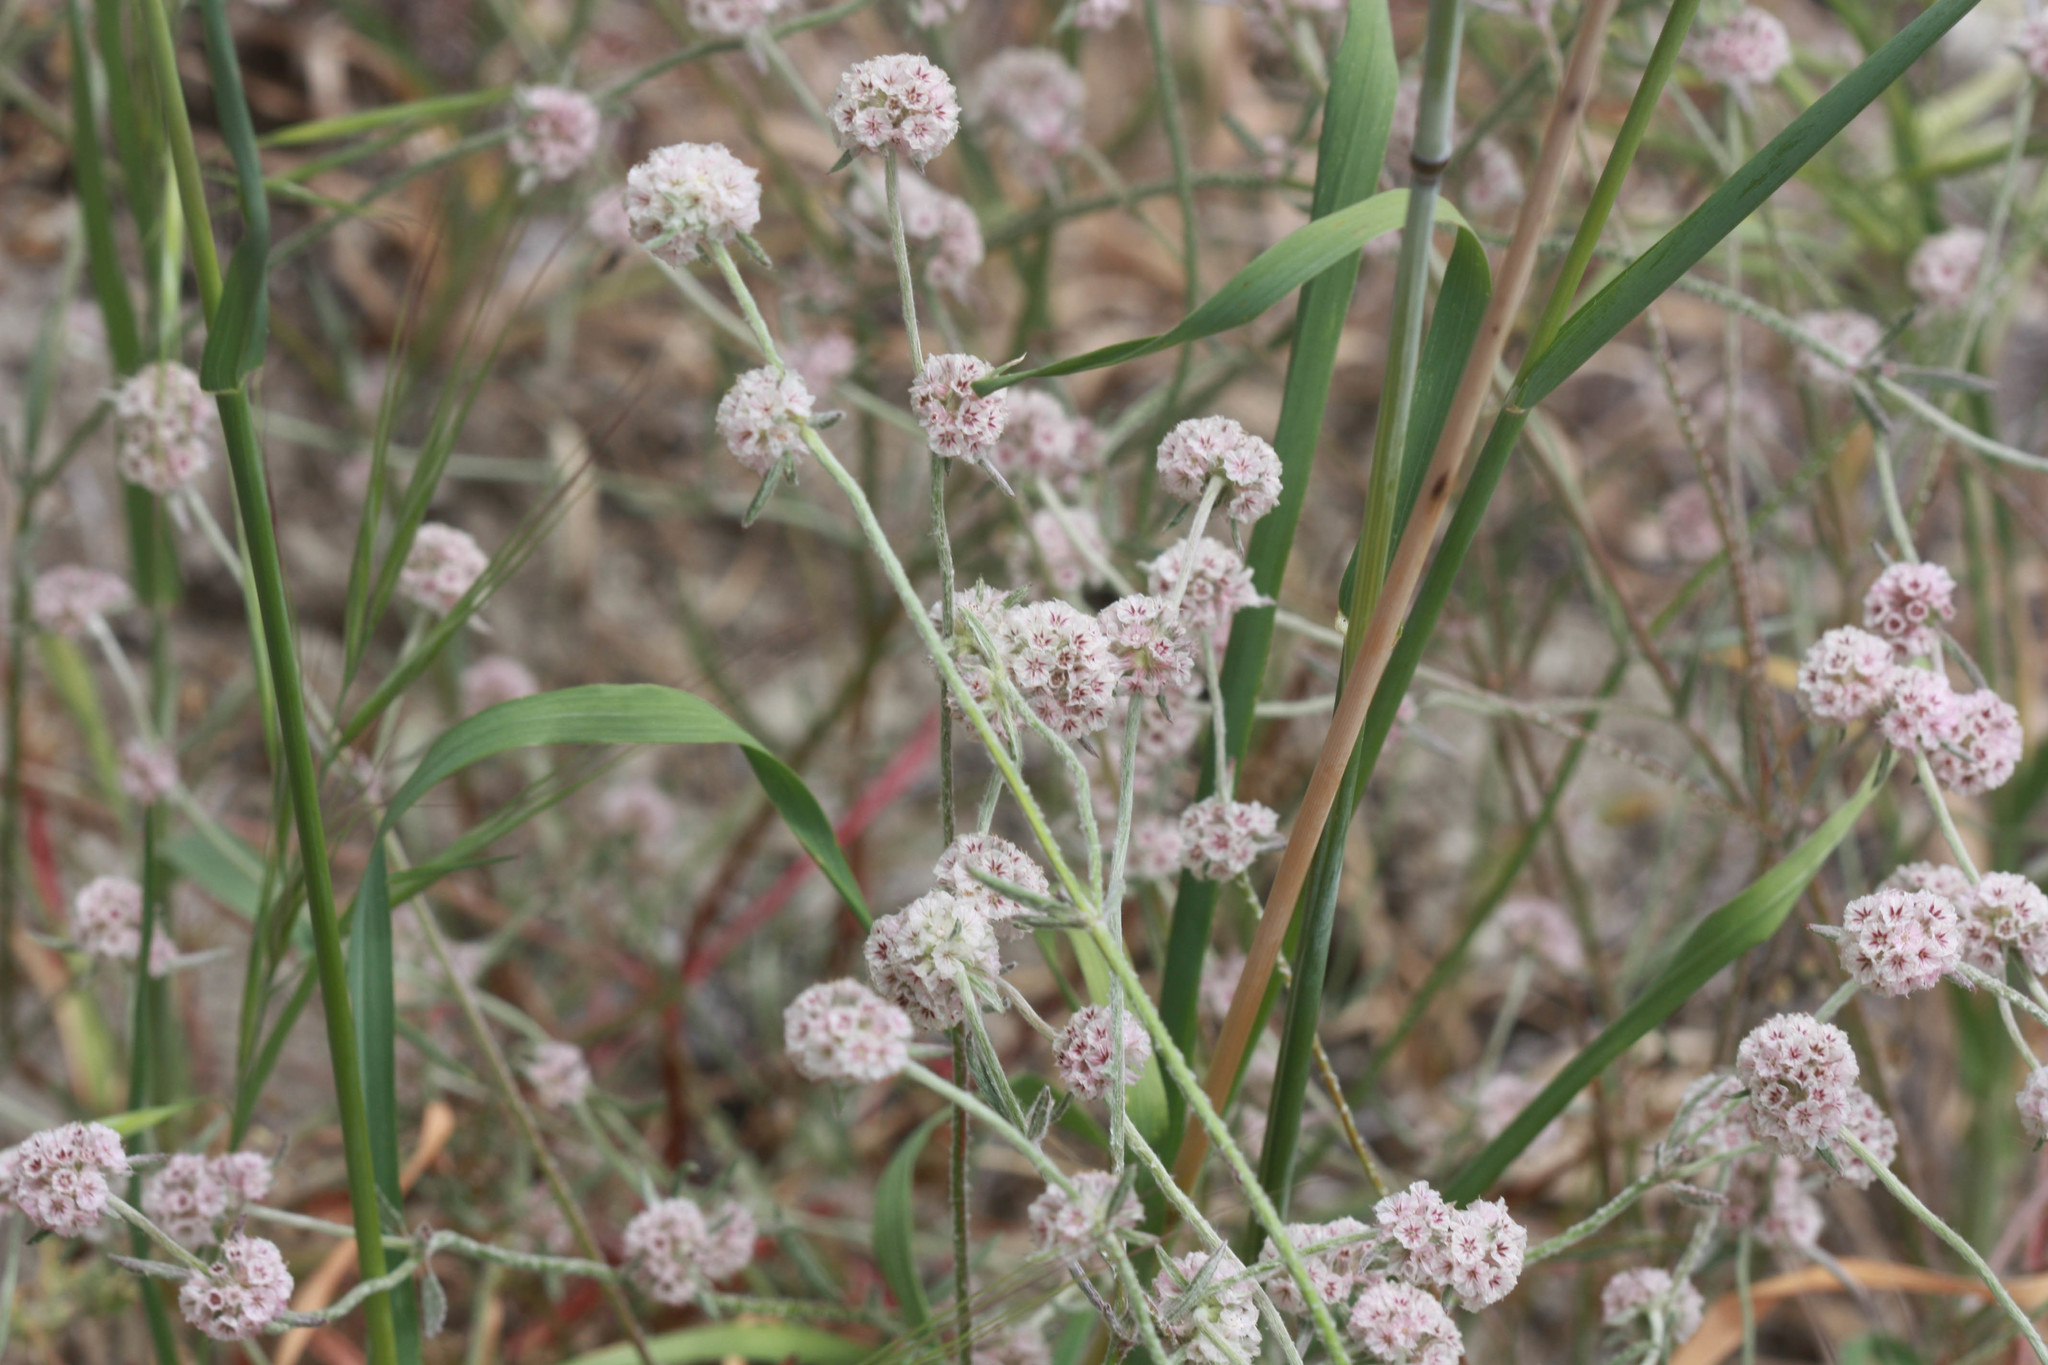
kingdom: Plantae
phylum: Tracheophyta
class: Magnoliopsida
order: Caryophyllales
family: Polygonaceae
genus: Chorizanthe
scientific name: Chorizanthe membranacea
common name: Pink spineflower
